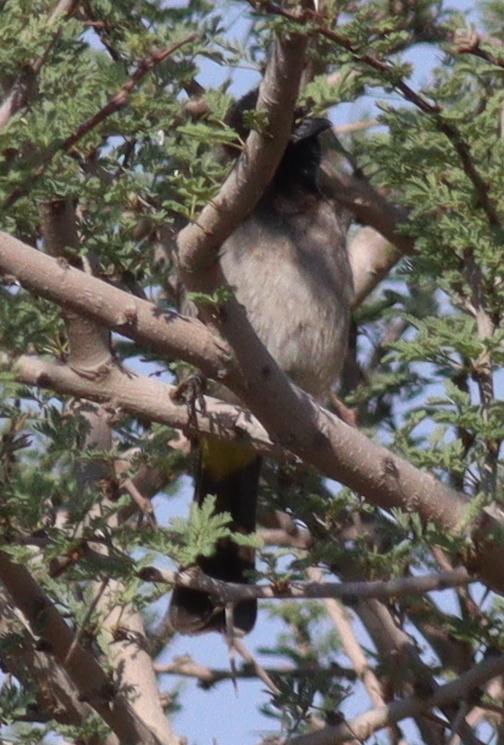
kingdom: Animalia
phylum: Chordata
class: Aves
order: Passeriformes
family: Pycnonotidae
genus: Pycnonotus
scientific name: Pycnonotus xanthopygos
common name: White-spectacled bulbul
